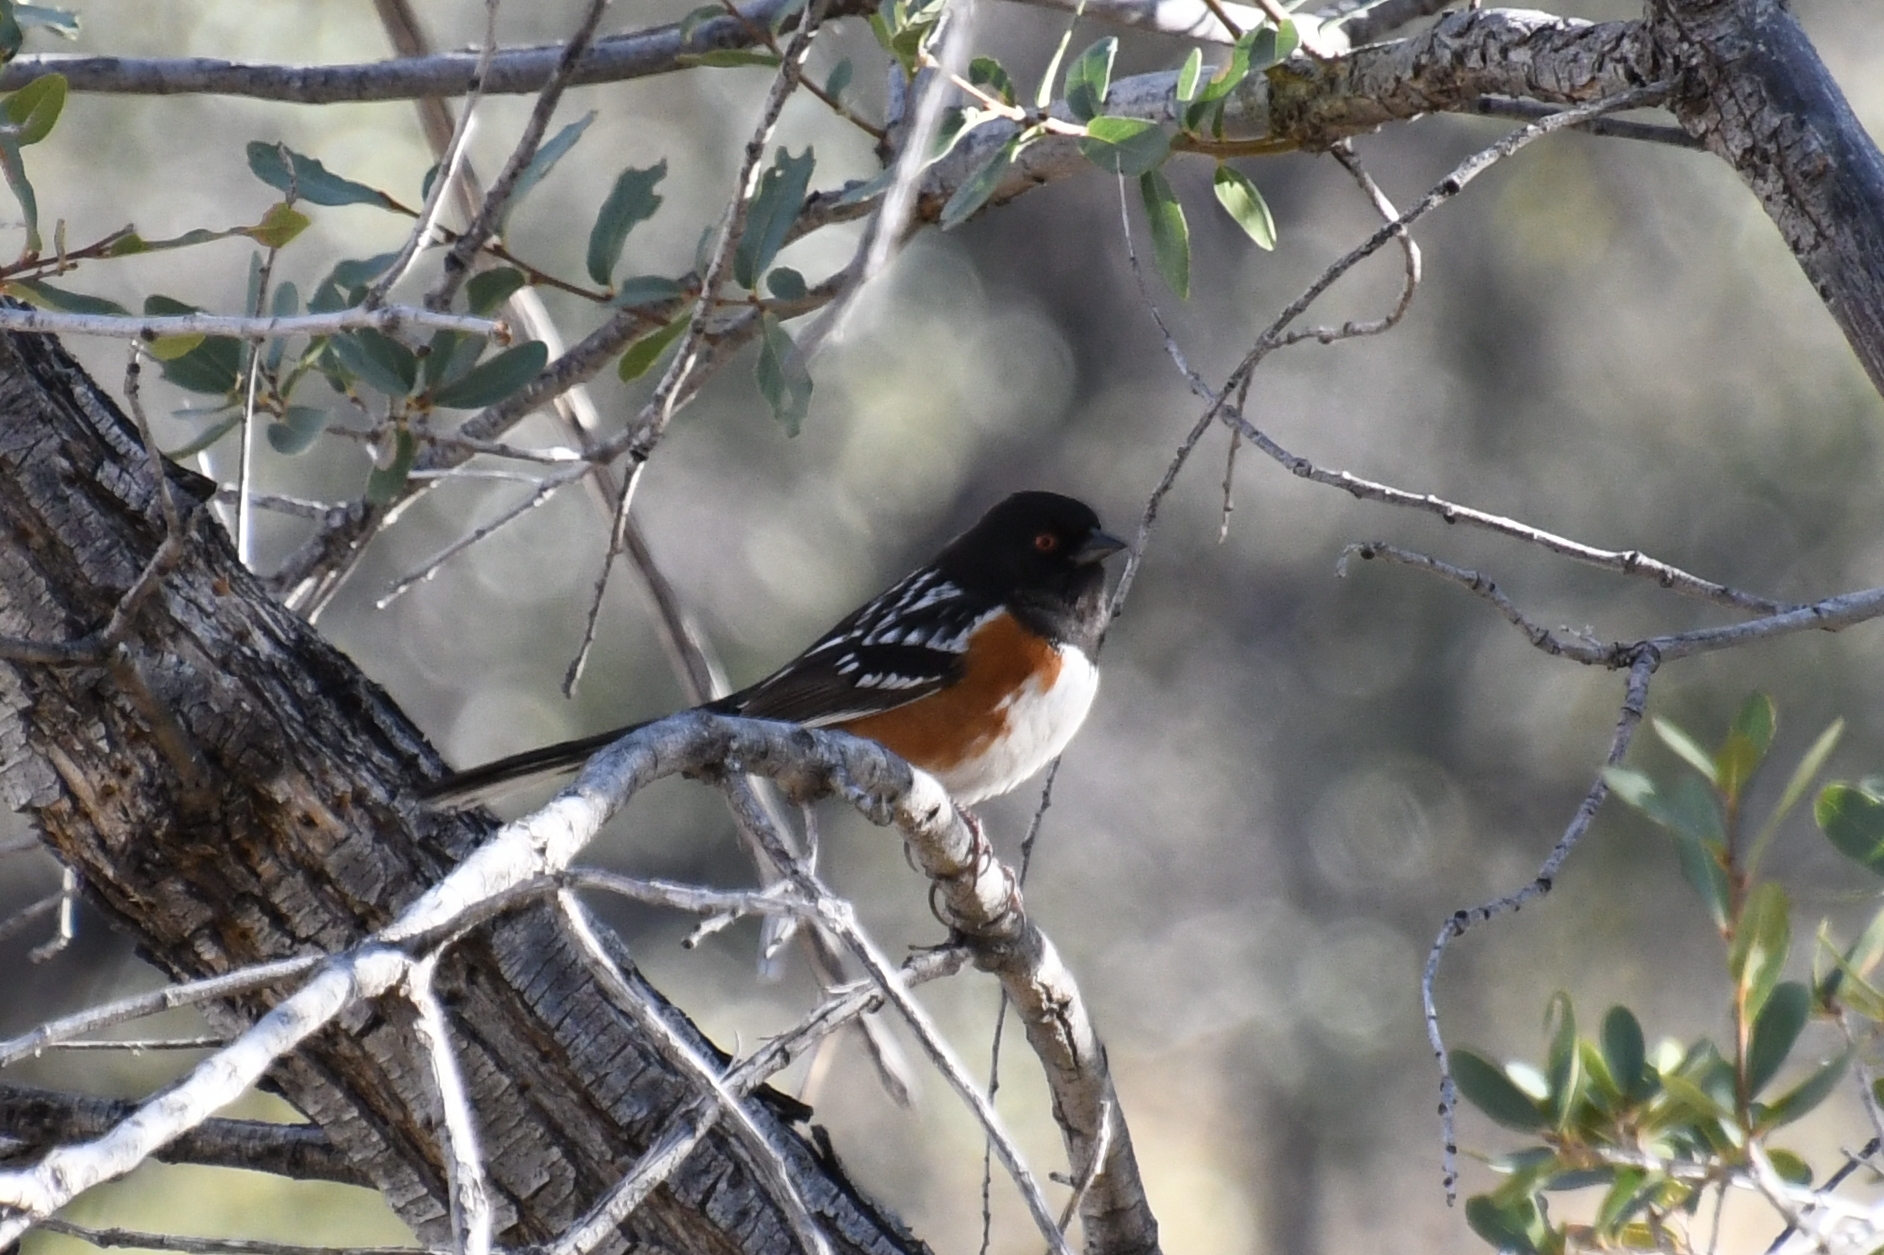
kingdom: Animalia
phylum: Chordata
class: Aves
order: Passeriformes
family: Passerellidae
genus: Pipilo
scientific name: Pipilo maculatus
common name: Spotted towhee
